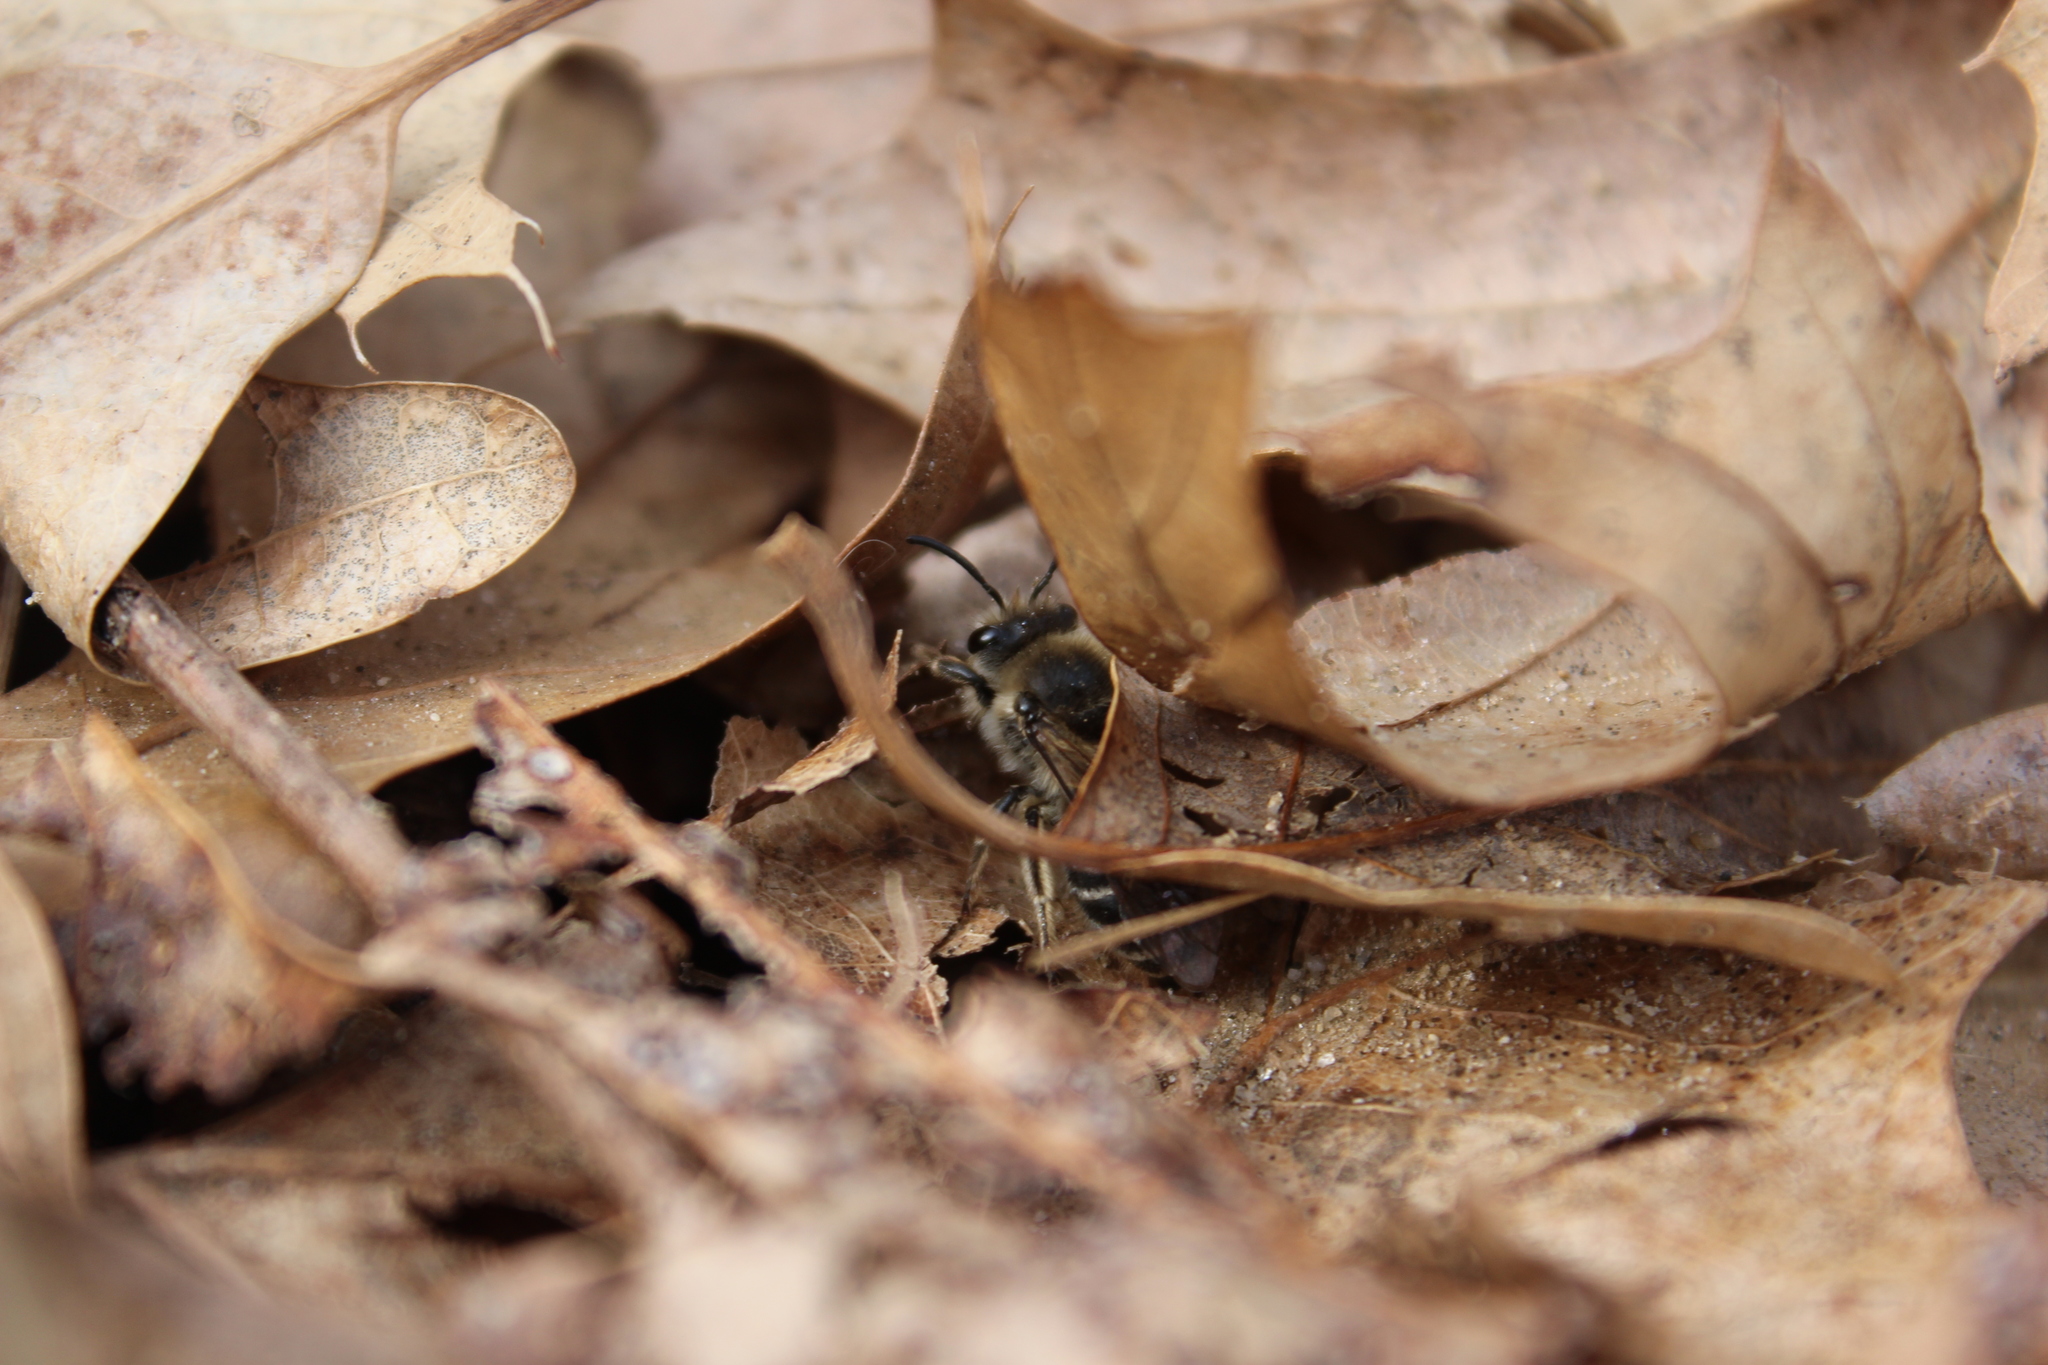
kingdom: Animalia
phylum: Arthropoda
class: Insecta
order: Hymenoptera
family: Colletidae
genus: Colletes
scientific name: Colletes inaequalis
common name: Unequal cellophane bee
